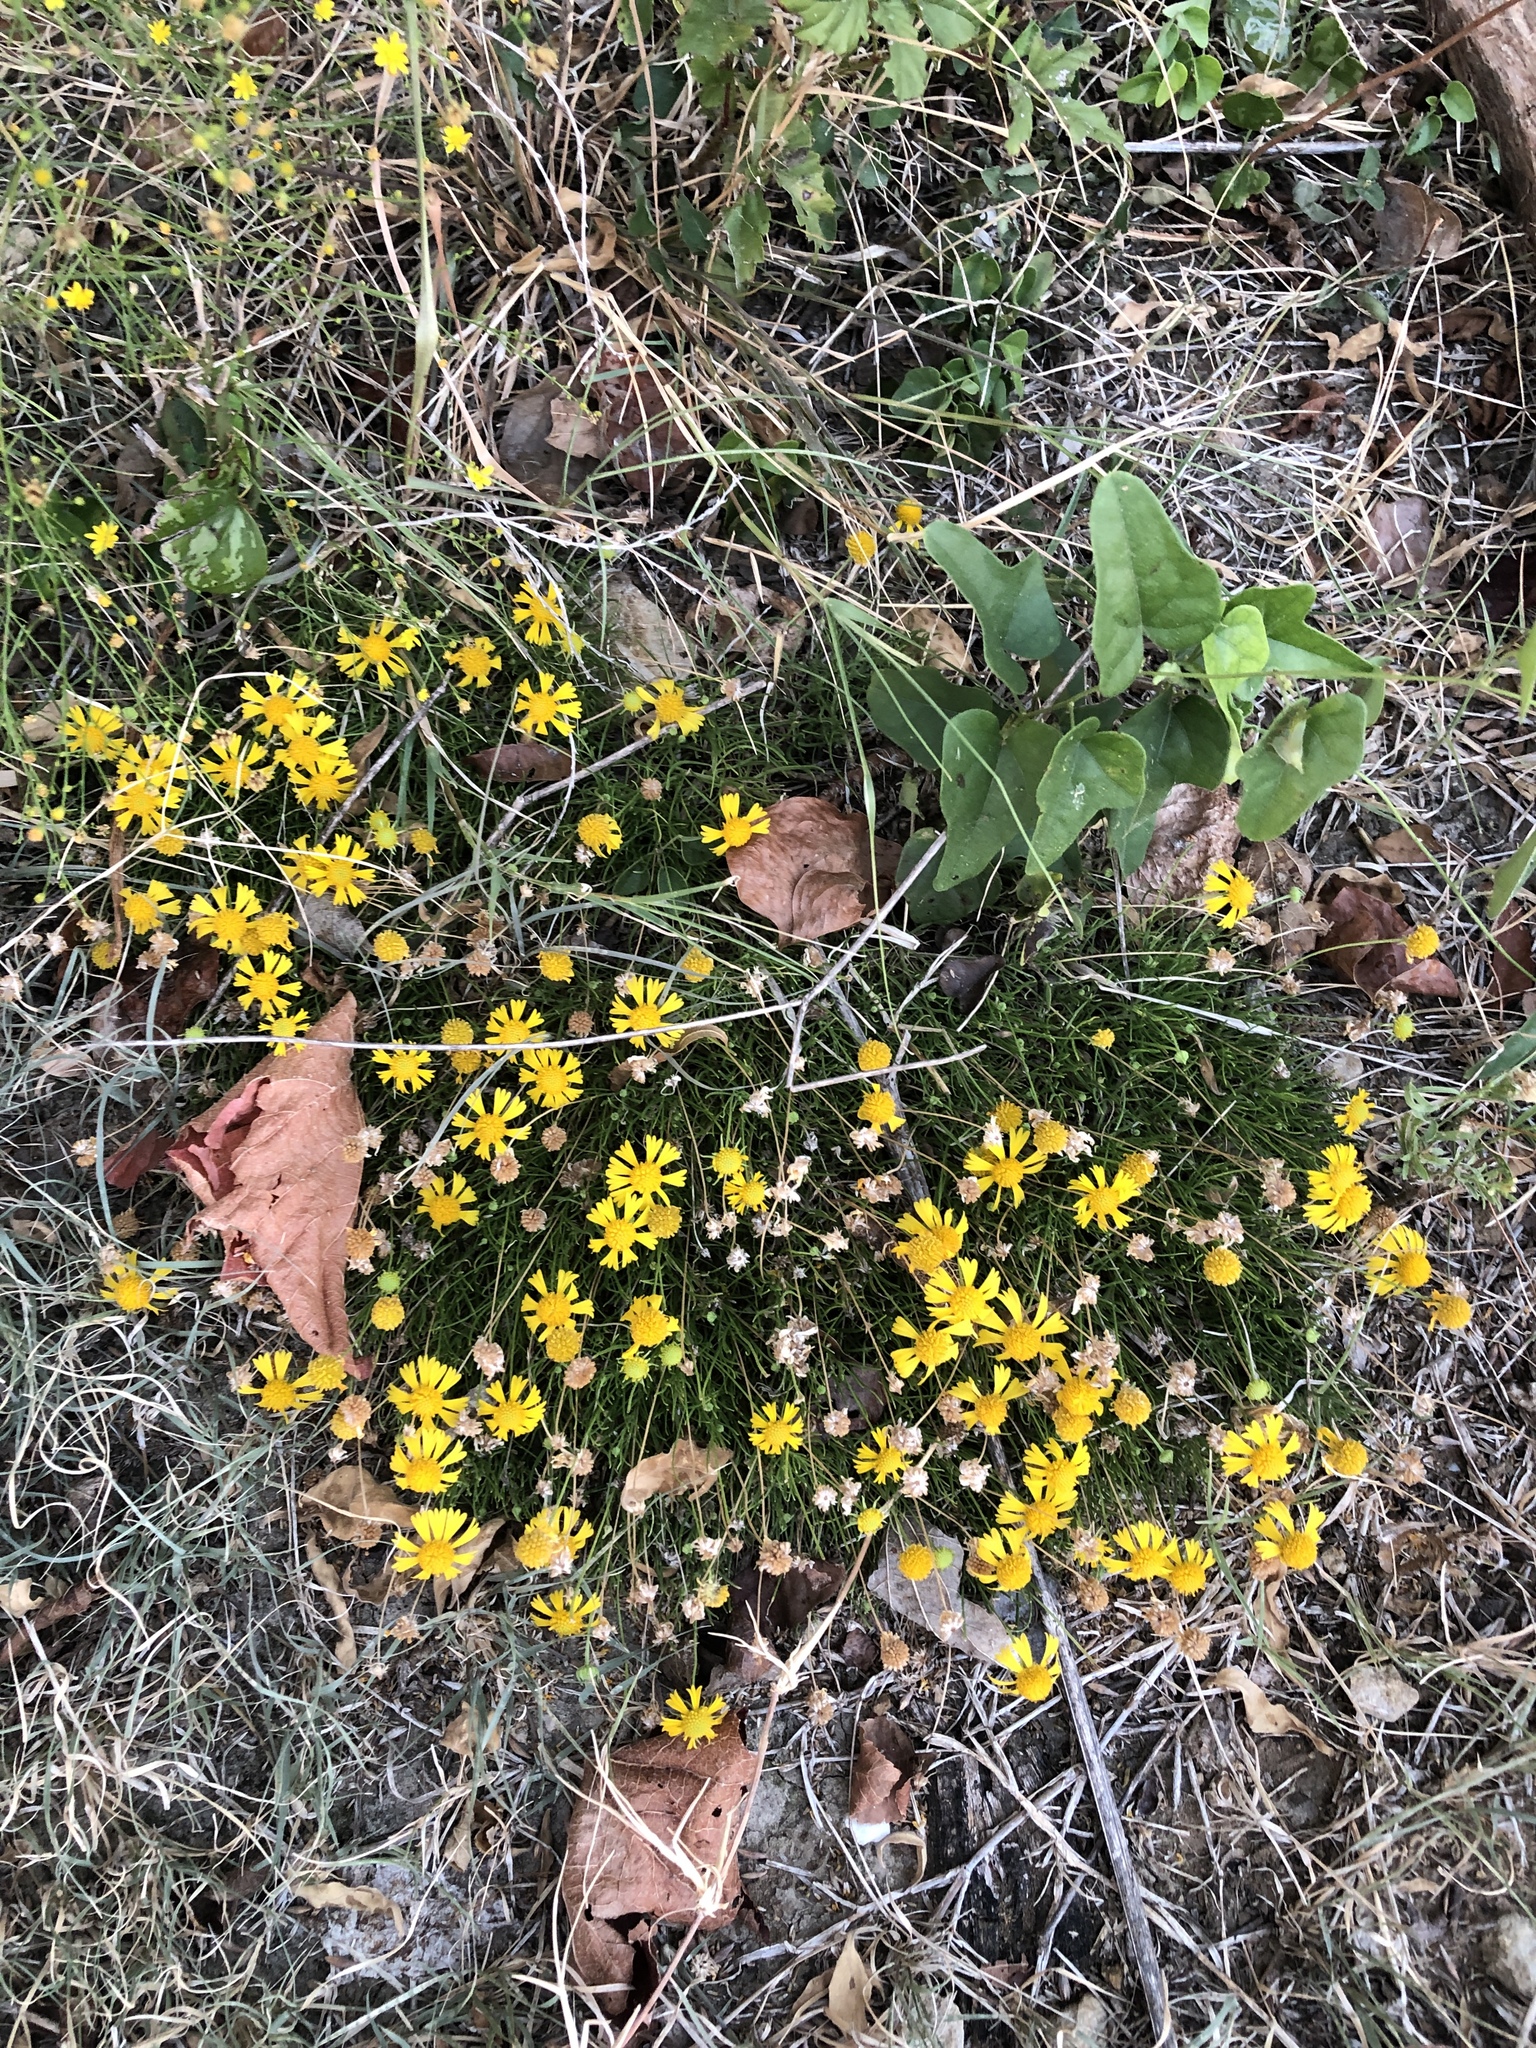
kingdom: Plantae
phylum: Tracheophyta
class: Magnoliopsida
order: Asterales
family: Asteraceae
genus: Helenium
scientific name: Helenium amarum
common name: Bitter sneezeweed
